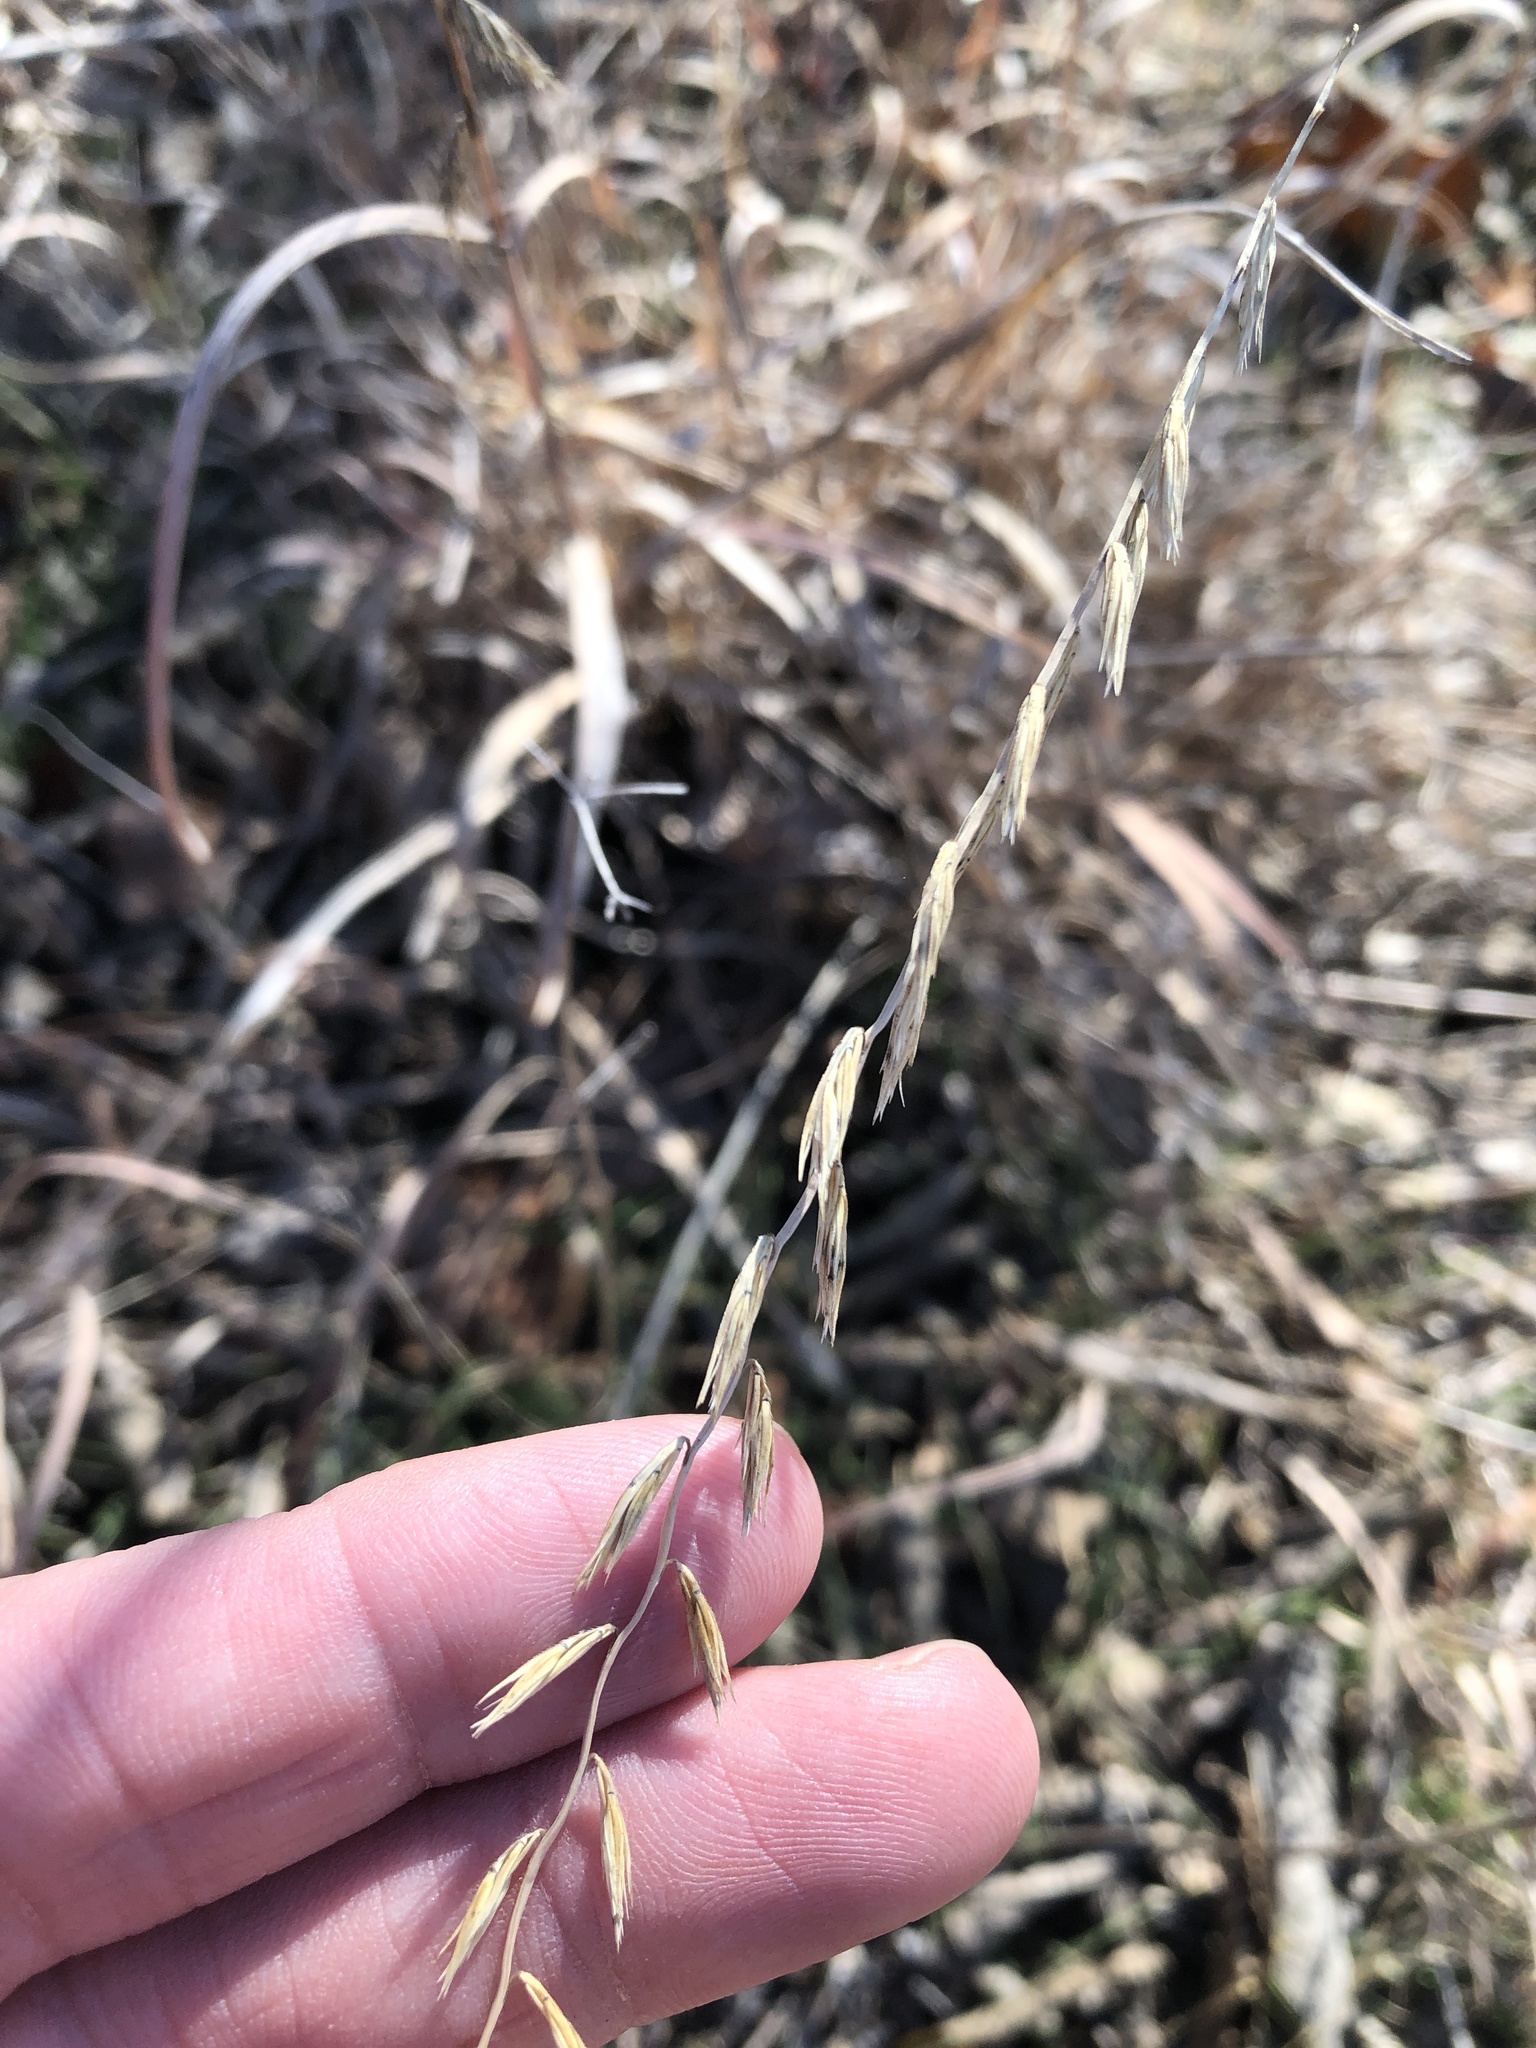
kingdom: Plantae
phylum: Tracheophyta
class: Liliopsida
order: Poales
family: Poaceae
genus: Bouteloua
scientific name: Bouteloua curtipendula
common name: Side-oats grama
